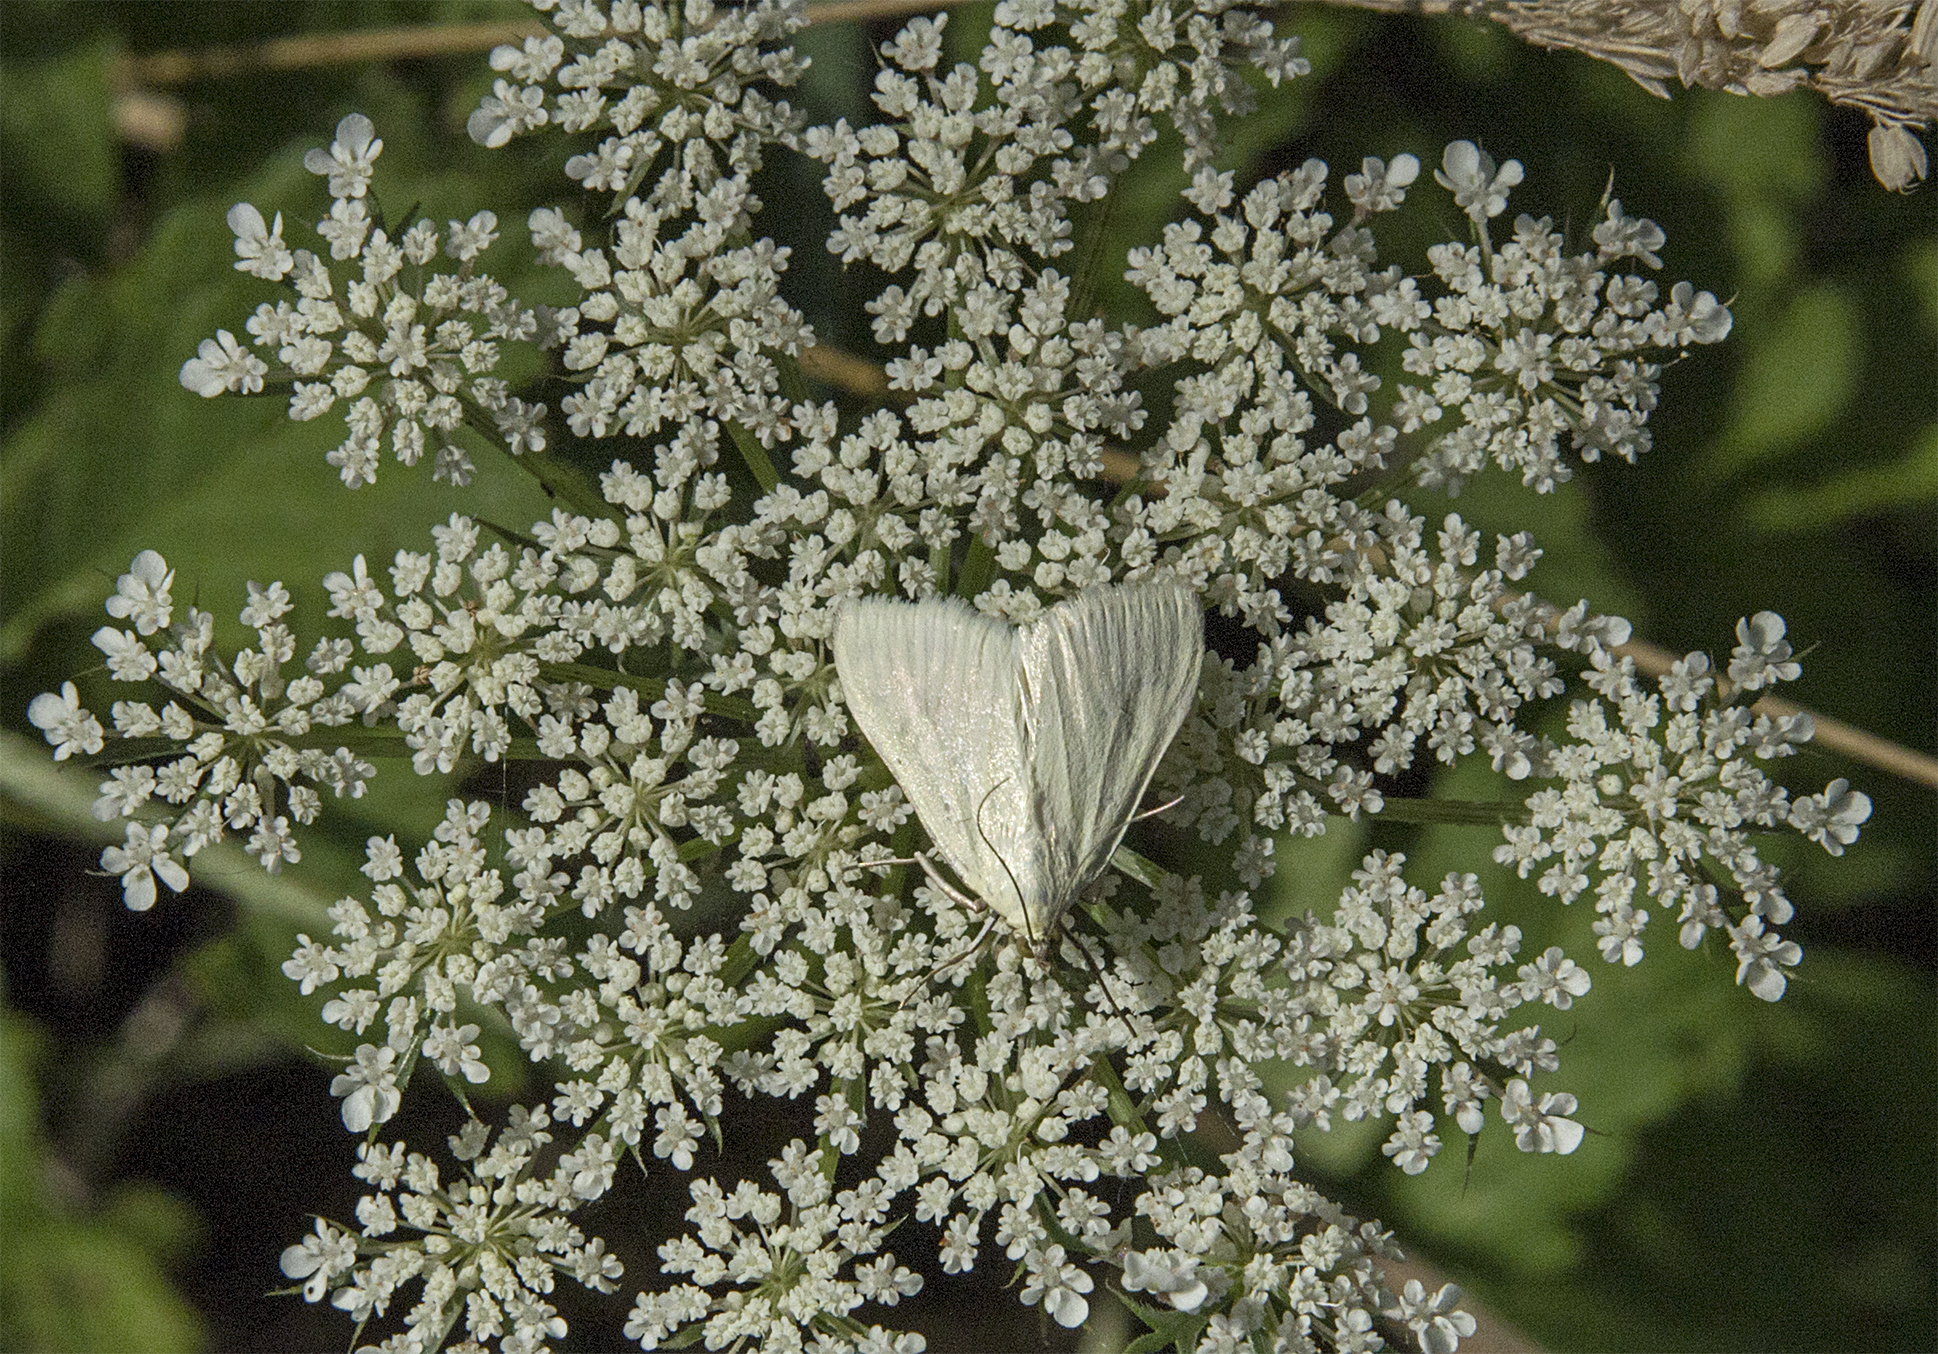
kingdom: Animalia
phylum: Arthropoda
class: Insecta
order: Lepidoptera
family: Crambidae
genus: Sitochroa
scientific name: Sitochroa palealis
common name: Greenish-yellow sitochroa moth
